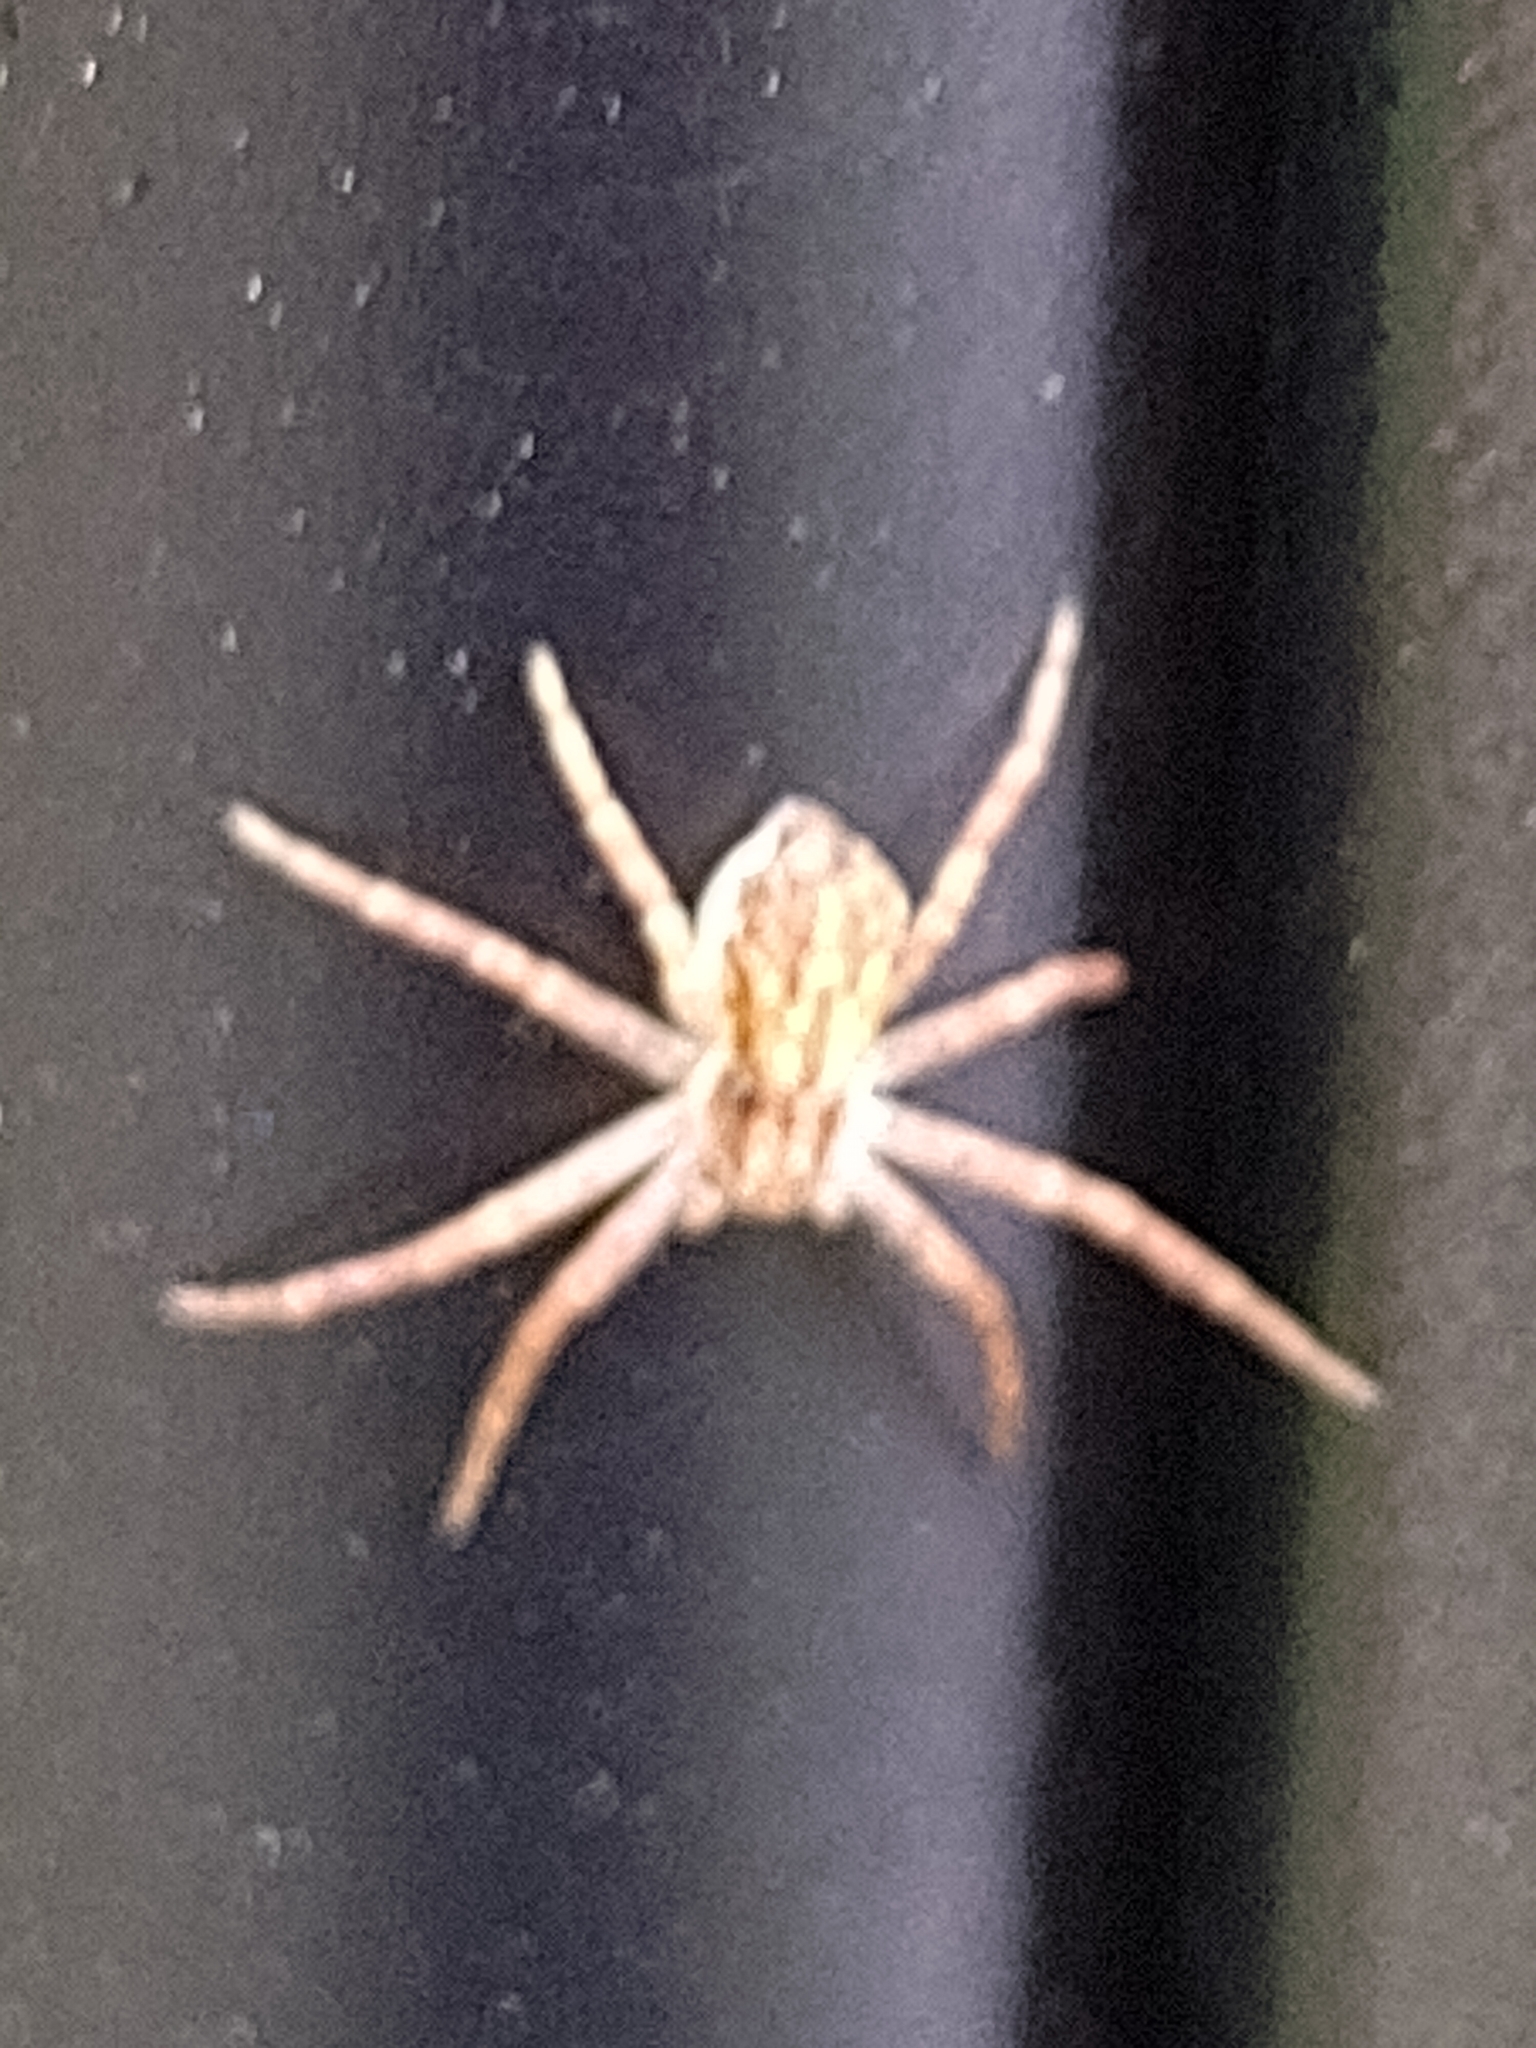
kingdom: Animalia
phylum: Arthropoda
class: Arachnida
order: Araneae
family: Philodromidae
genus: Philodromus
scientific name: Philodromus dispar
